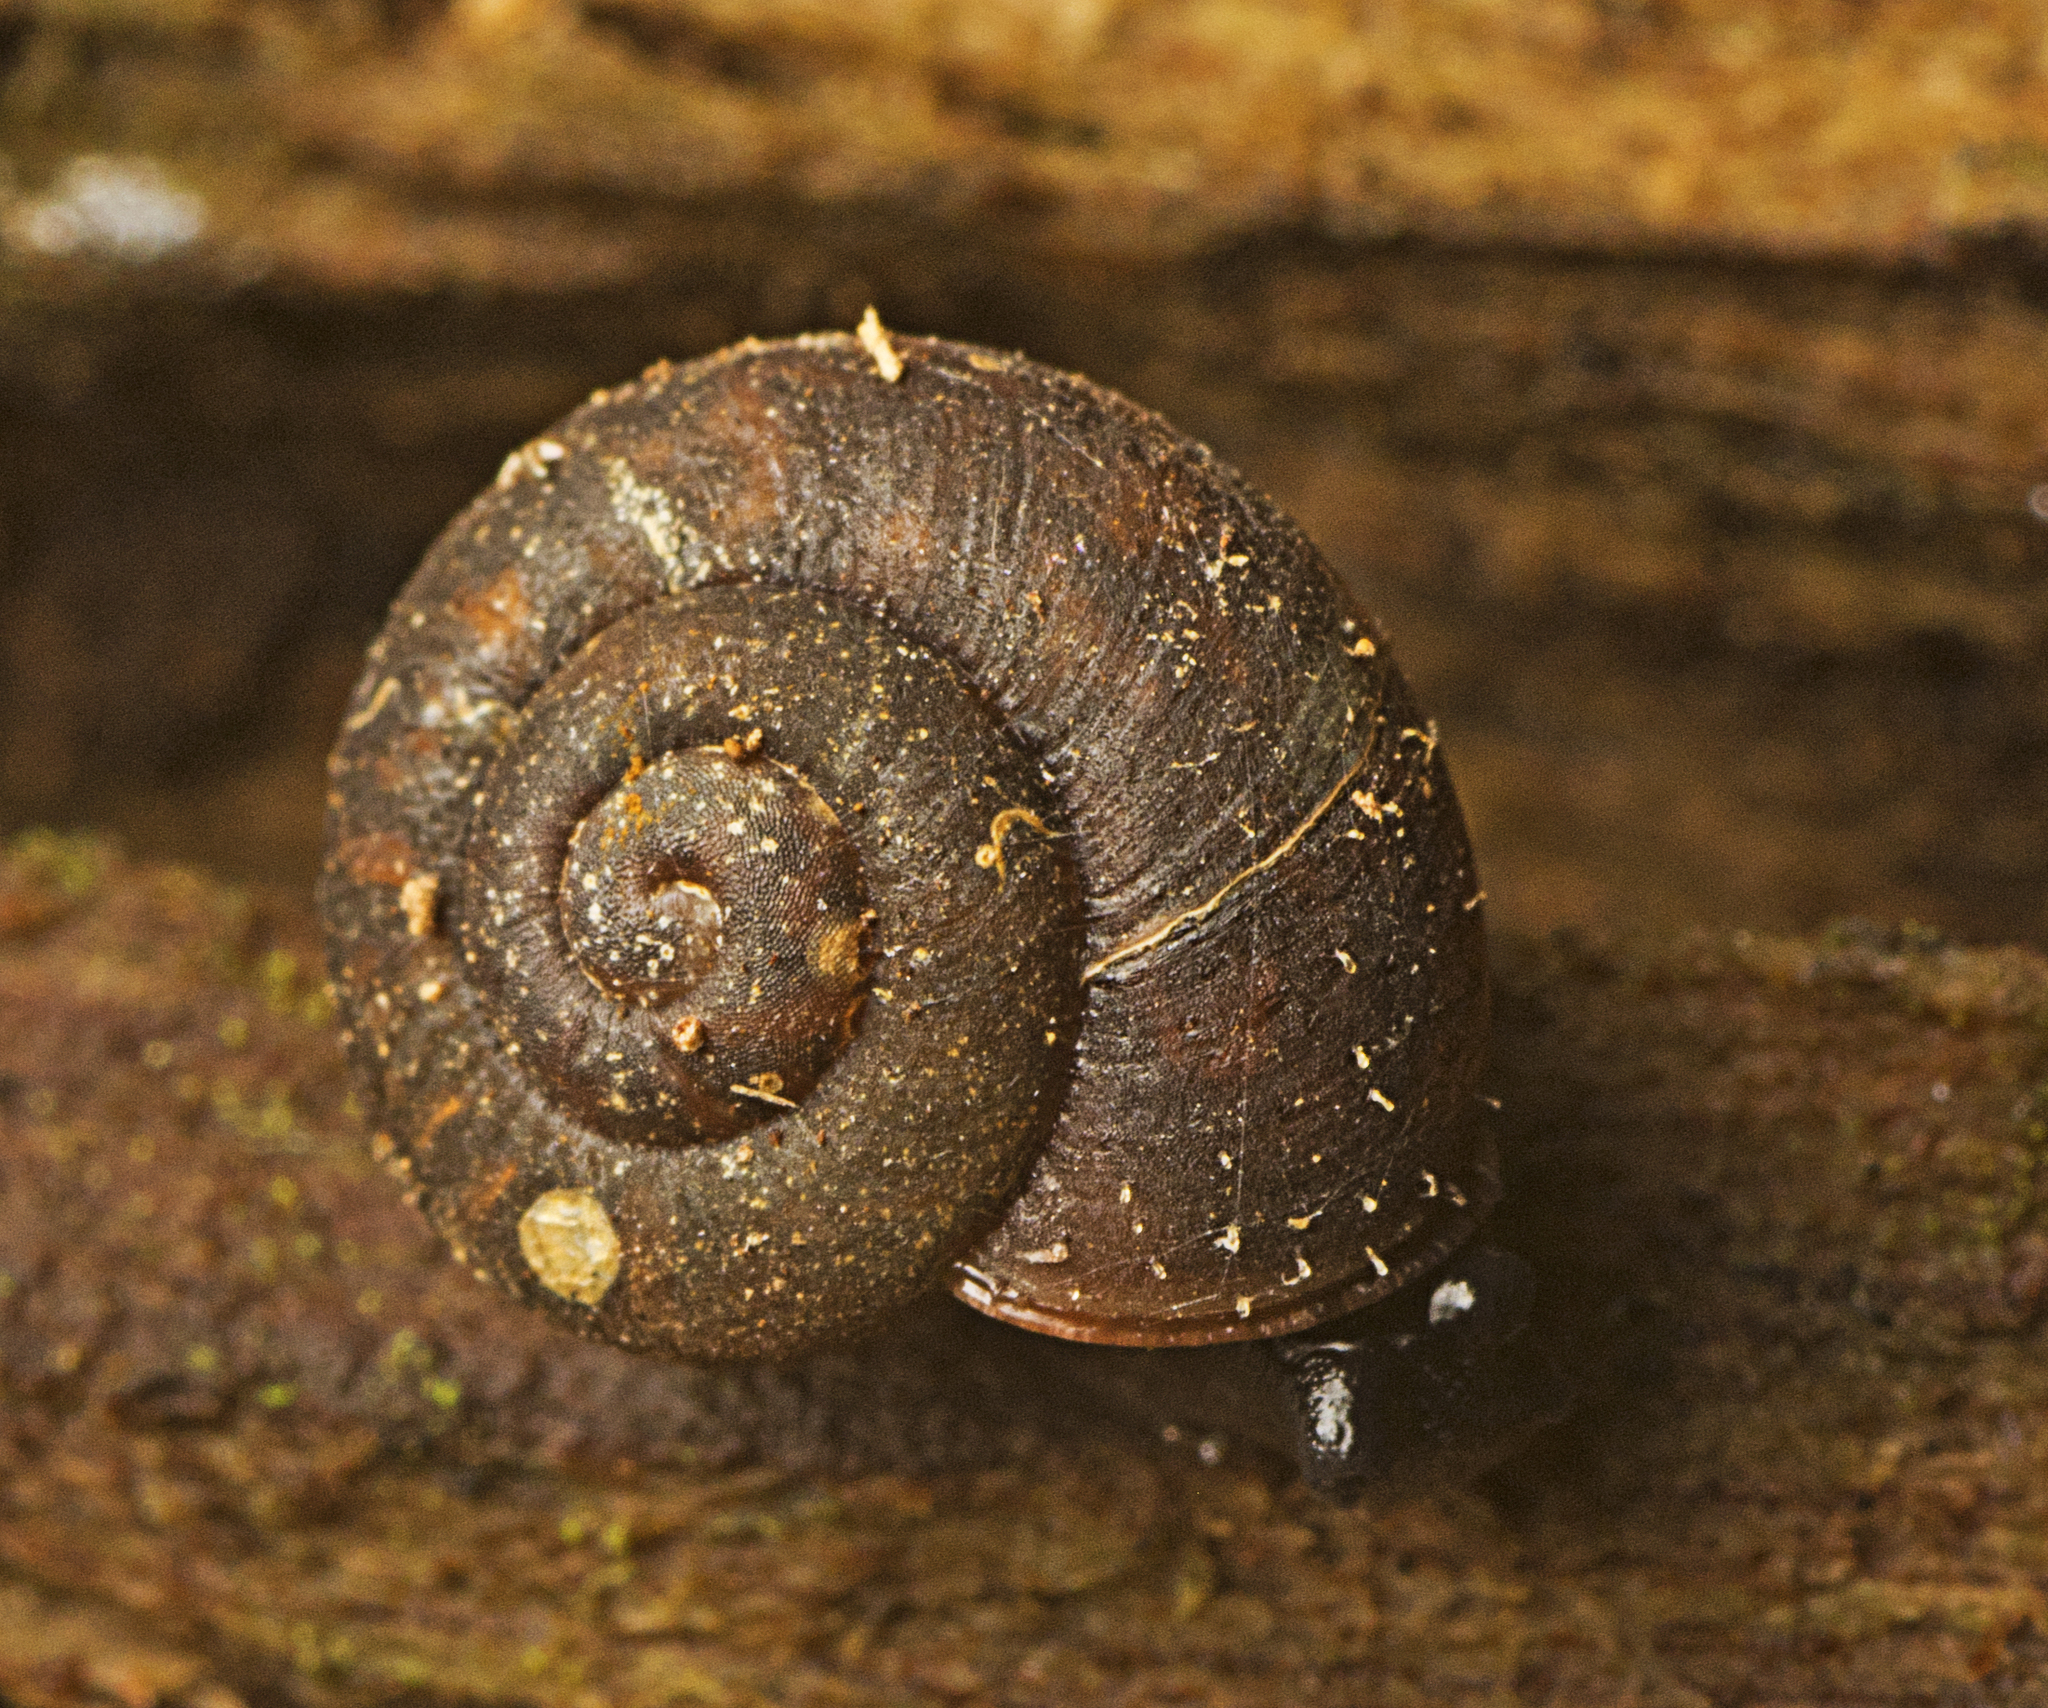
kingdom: Animalia
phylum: Mollusca
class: Gastropoda
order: Stylommatophora
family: Camaenidae
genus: Ramogenia
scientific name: Ramogenia challengeri
